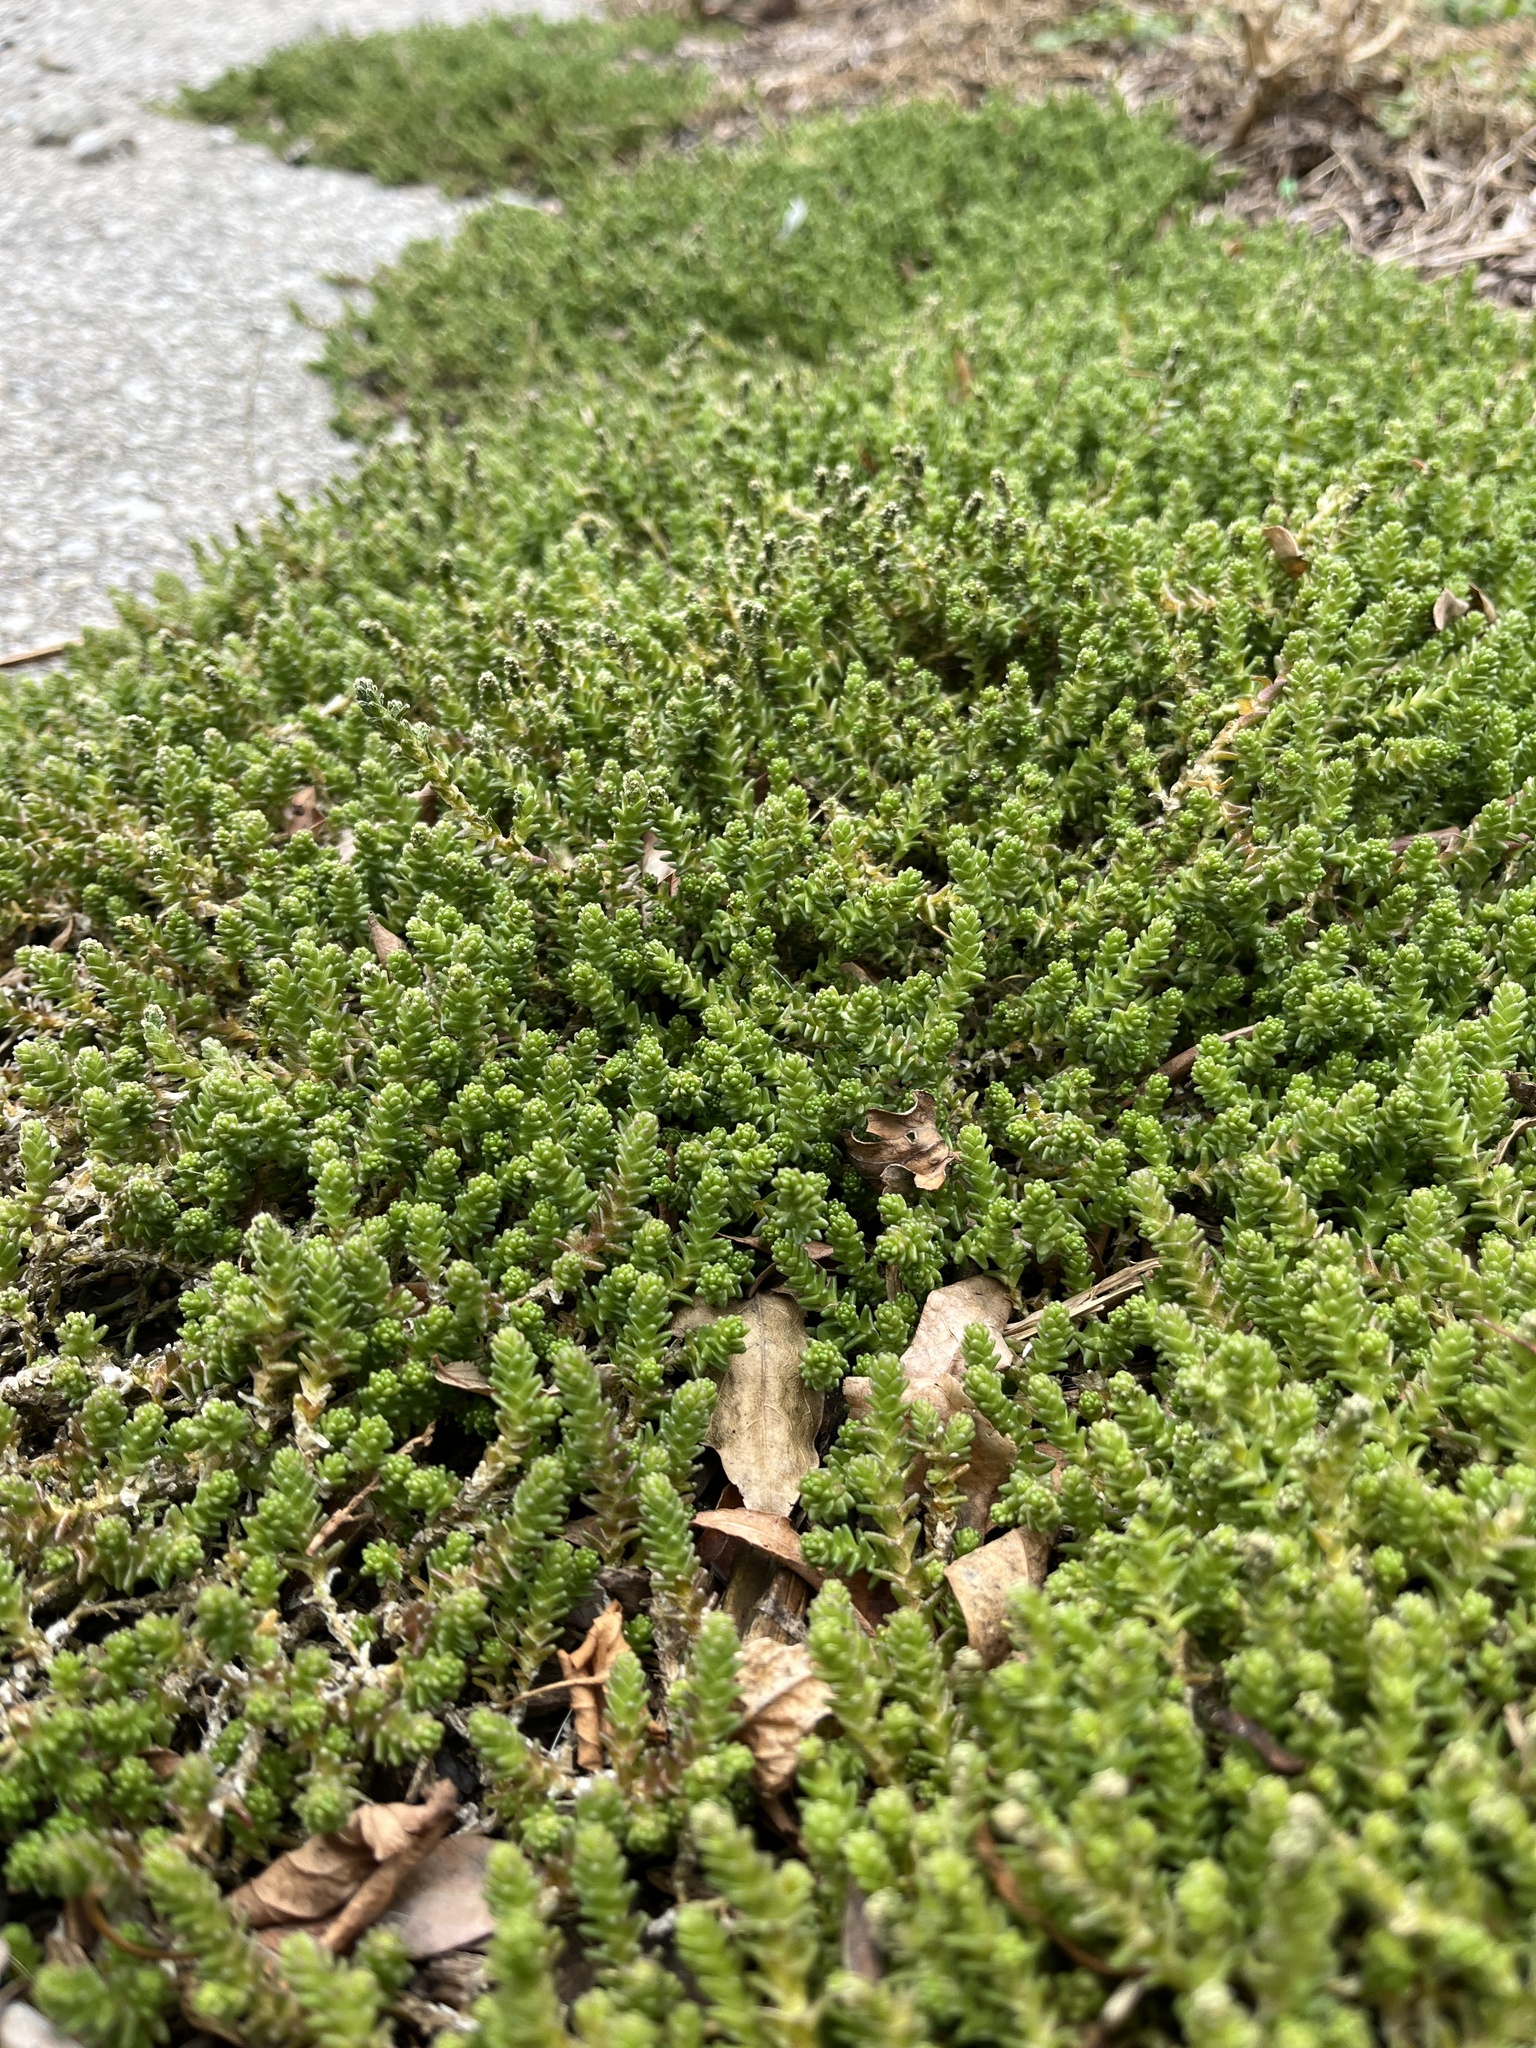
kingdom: Plantae
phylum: Tracheophyta
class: Magnoliopsida
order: Saxifragales
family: Crassulaceae
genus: Sedum
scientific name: Sedum acre
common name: Biting stonecrop
